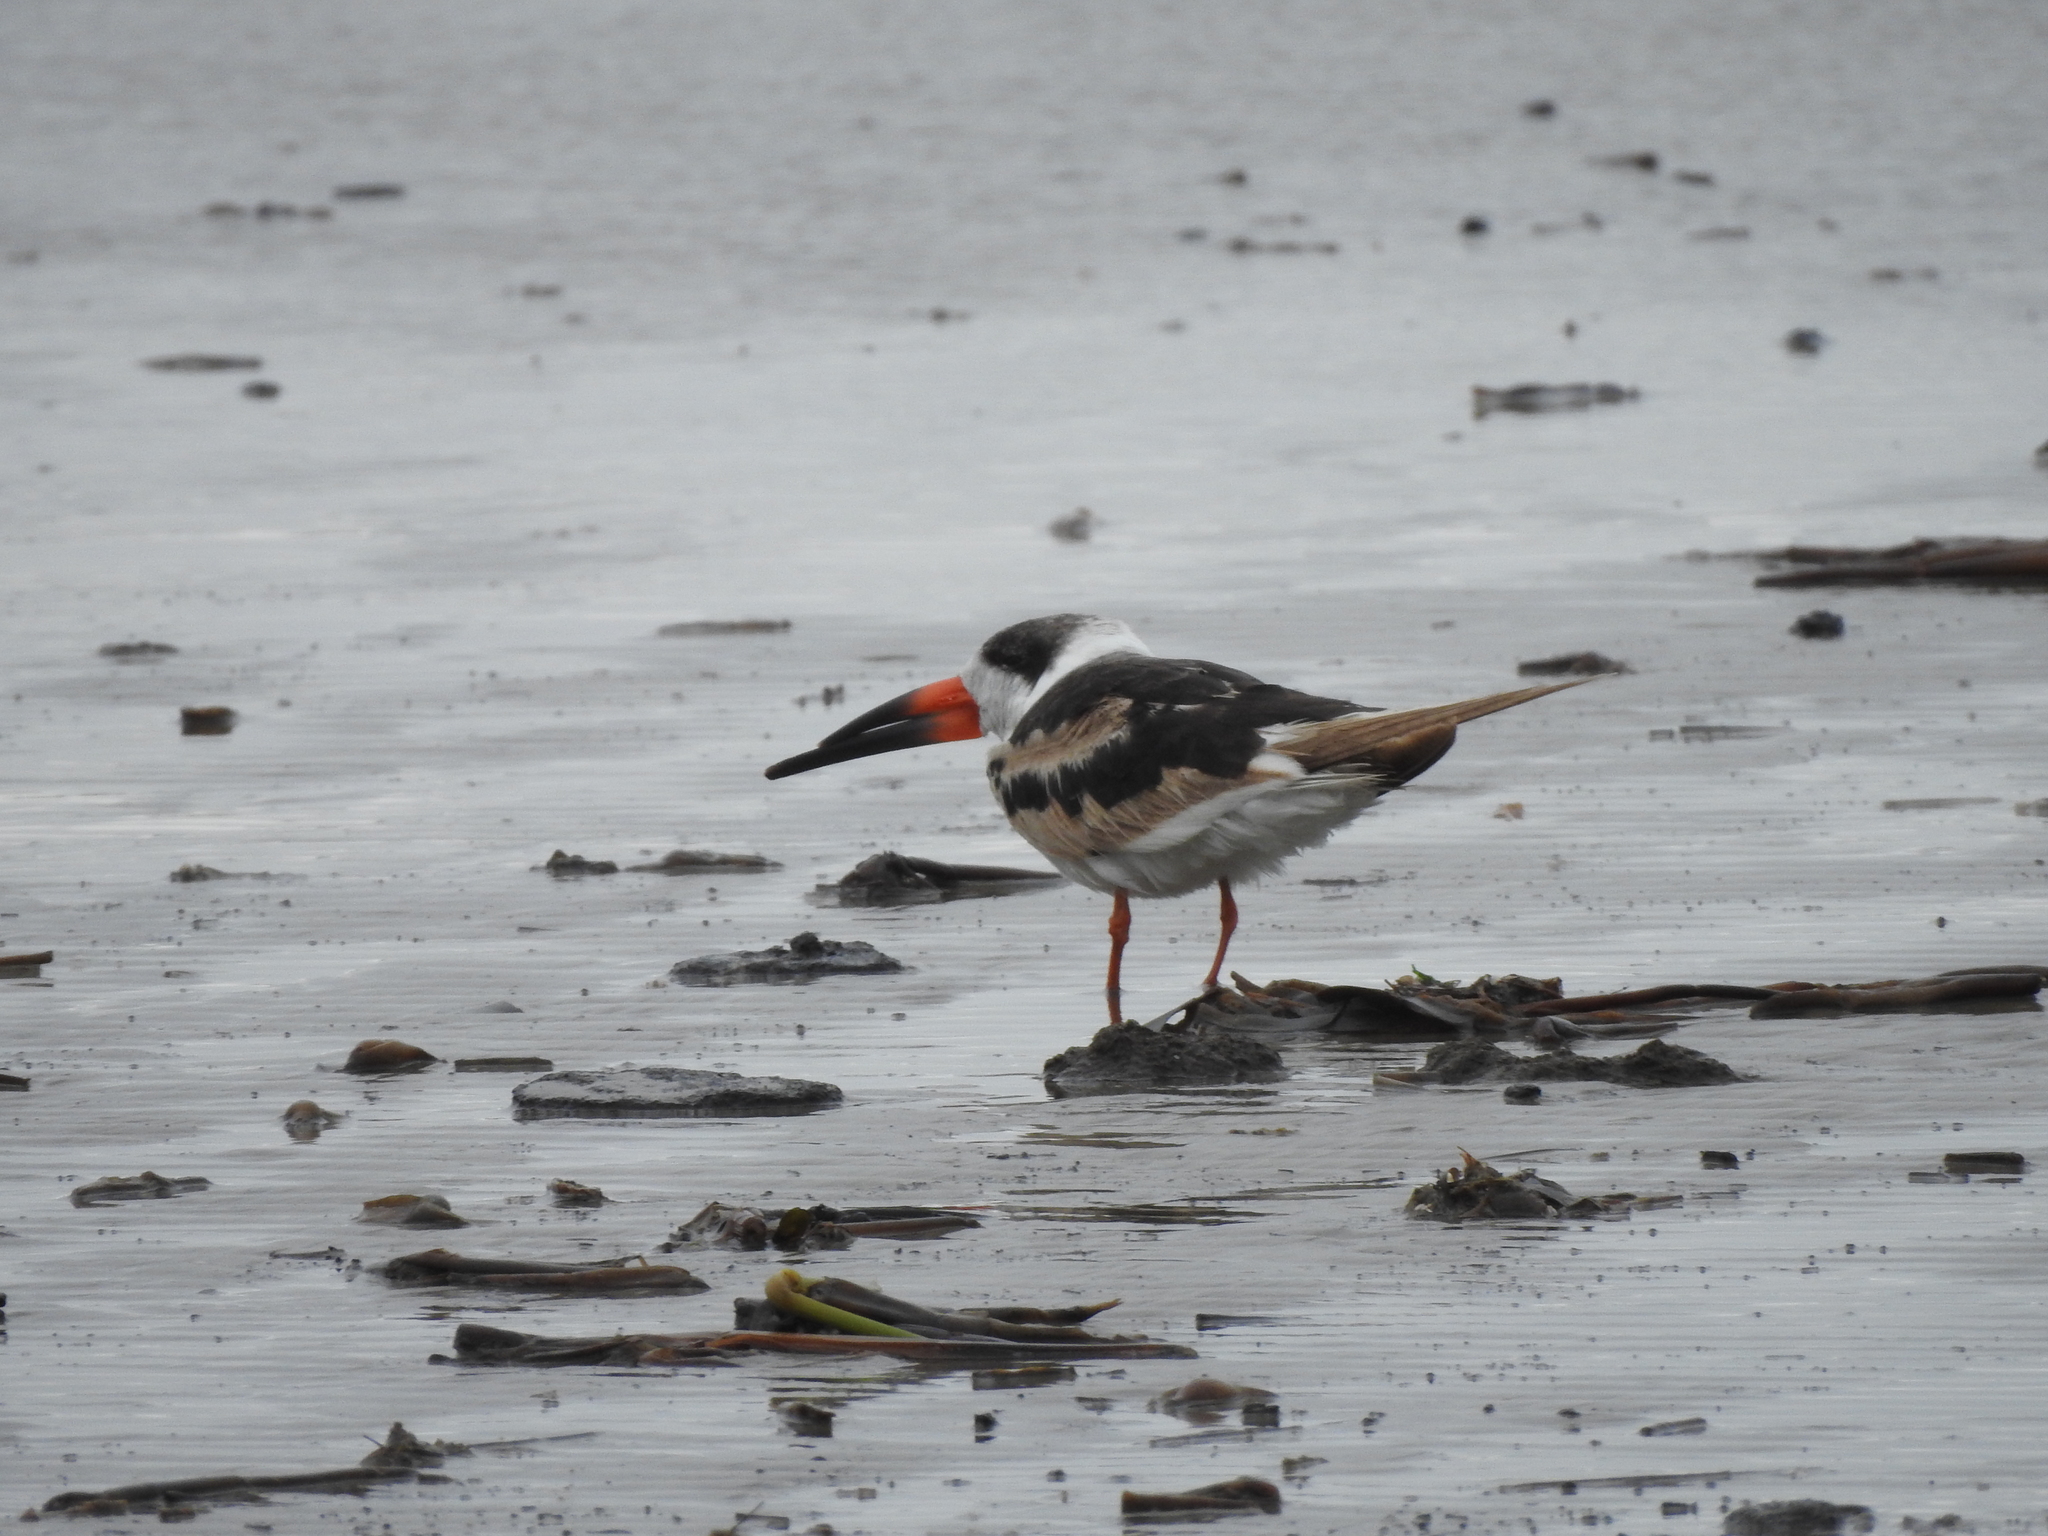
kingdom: Animalia
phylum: Chordata
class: Aves
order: Charadriiformes
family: Laridae
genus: Rynchops
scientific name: Rynchops niger
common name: Black skimmer
